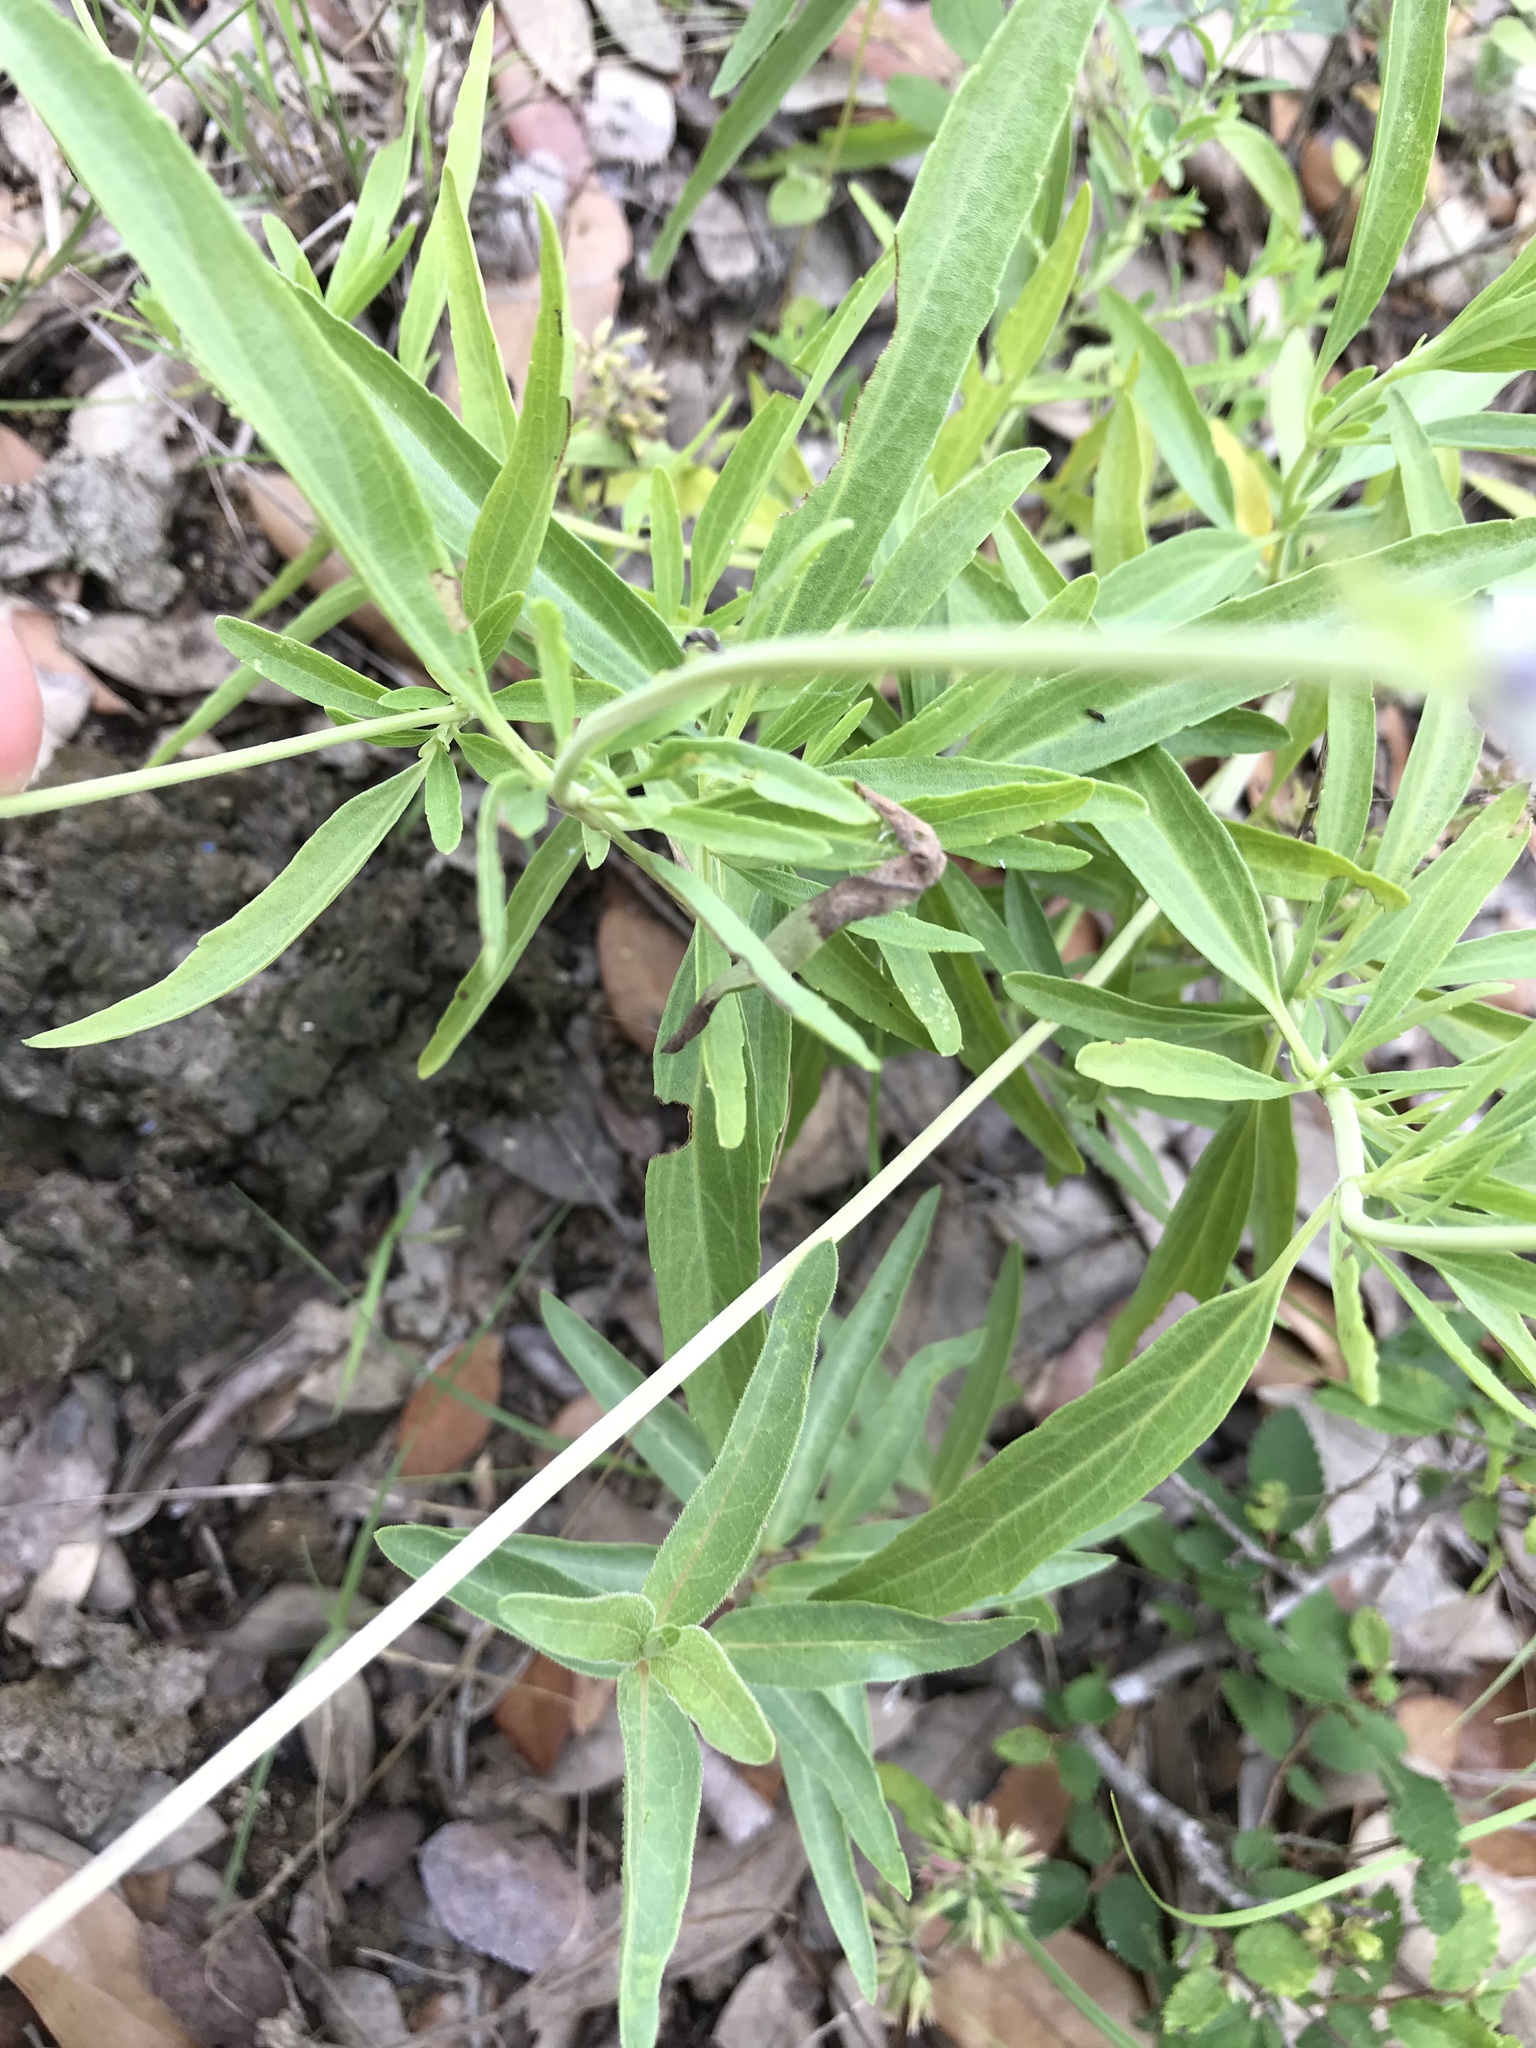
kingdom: Plantae
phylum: Tracheophyta
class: Magnoliopsida
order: Lamiales
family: Lamiaceae
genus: Salvia
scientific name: Salvia farinacea
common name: Mealy sage
